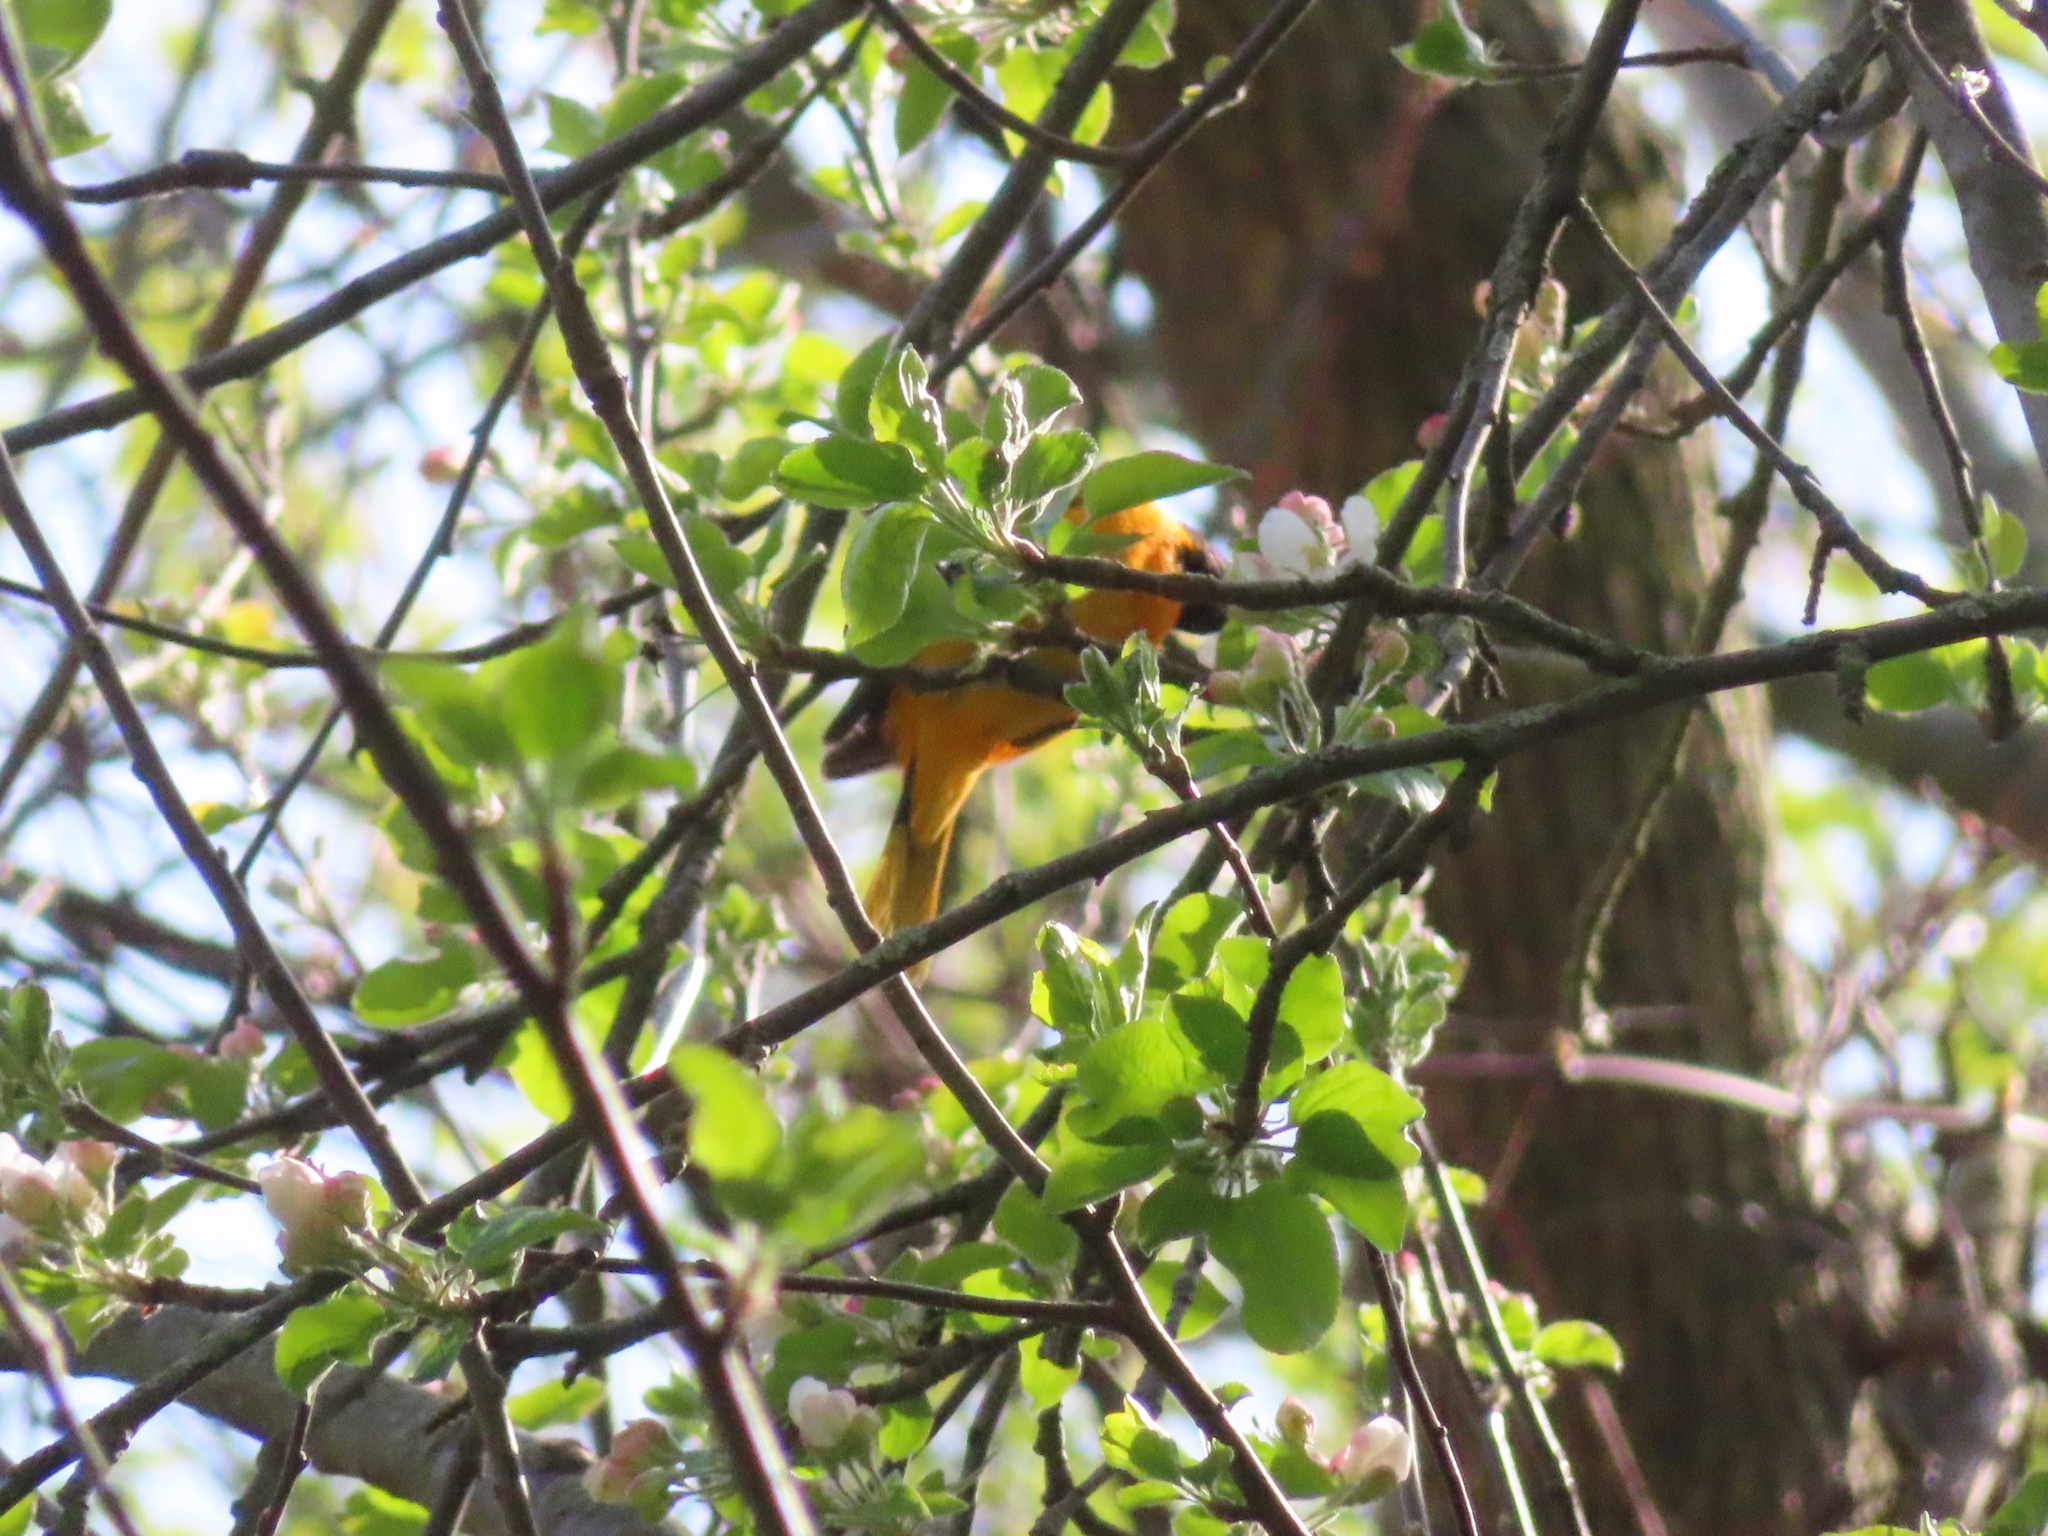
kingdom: Animalia
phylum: Chordata
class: Aves
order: Passeriformes
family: Icteridae
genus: Icterus
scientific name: Icterus galbula
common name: Baltimore oriole
